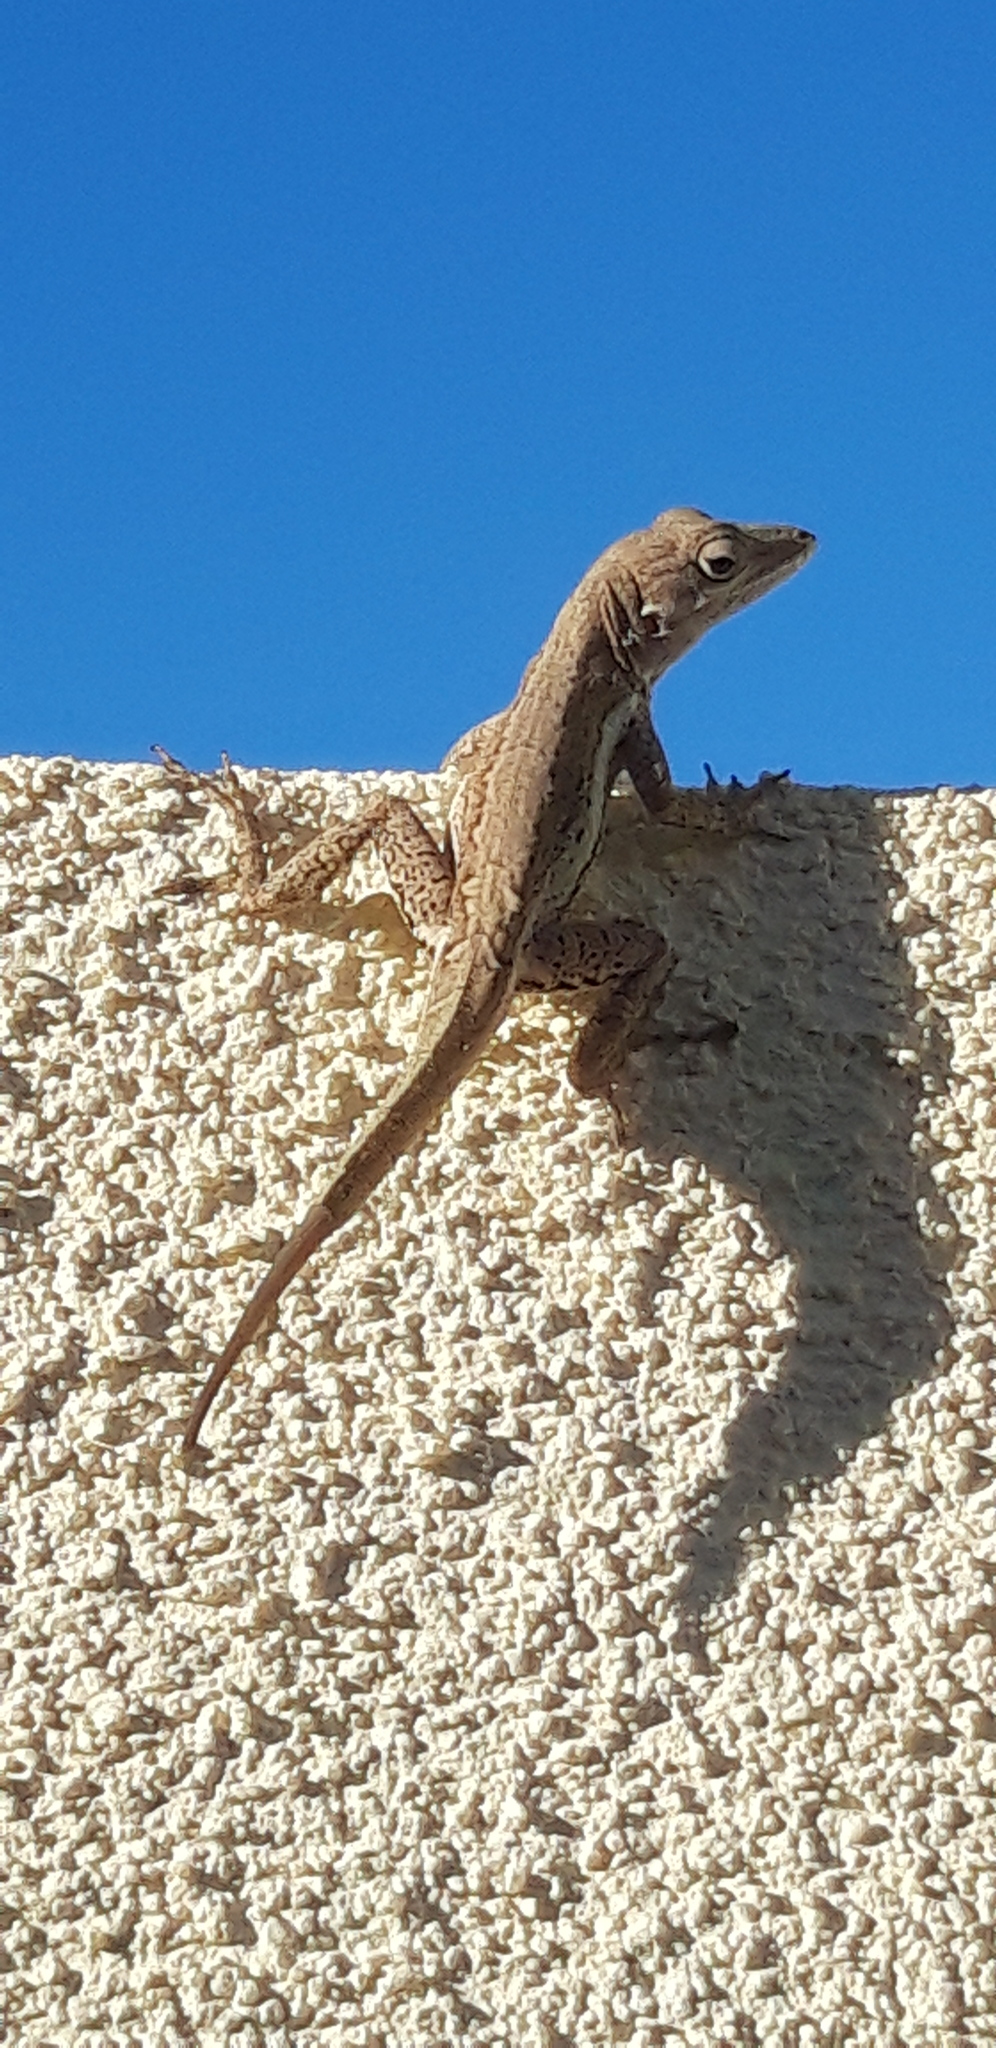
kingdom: Animalia
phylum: Chordata
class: Squamata
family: Dactyloidae
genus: Anolis
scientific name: Anolis gingivinus
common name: Anguilla anole
